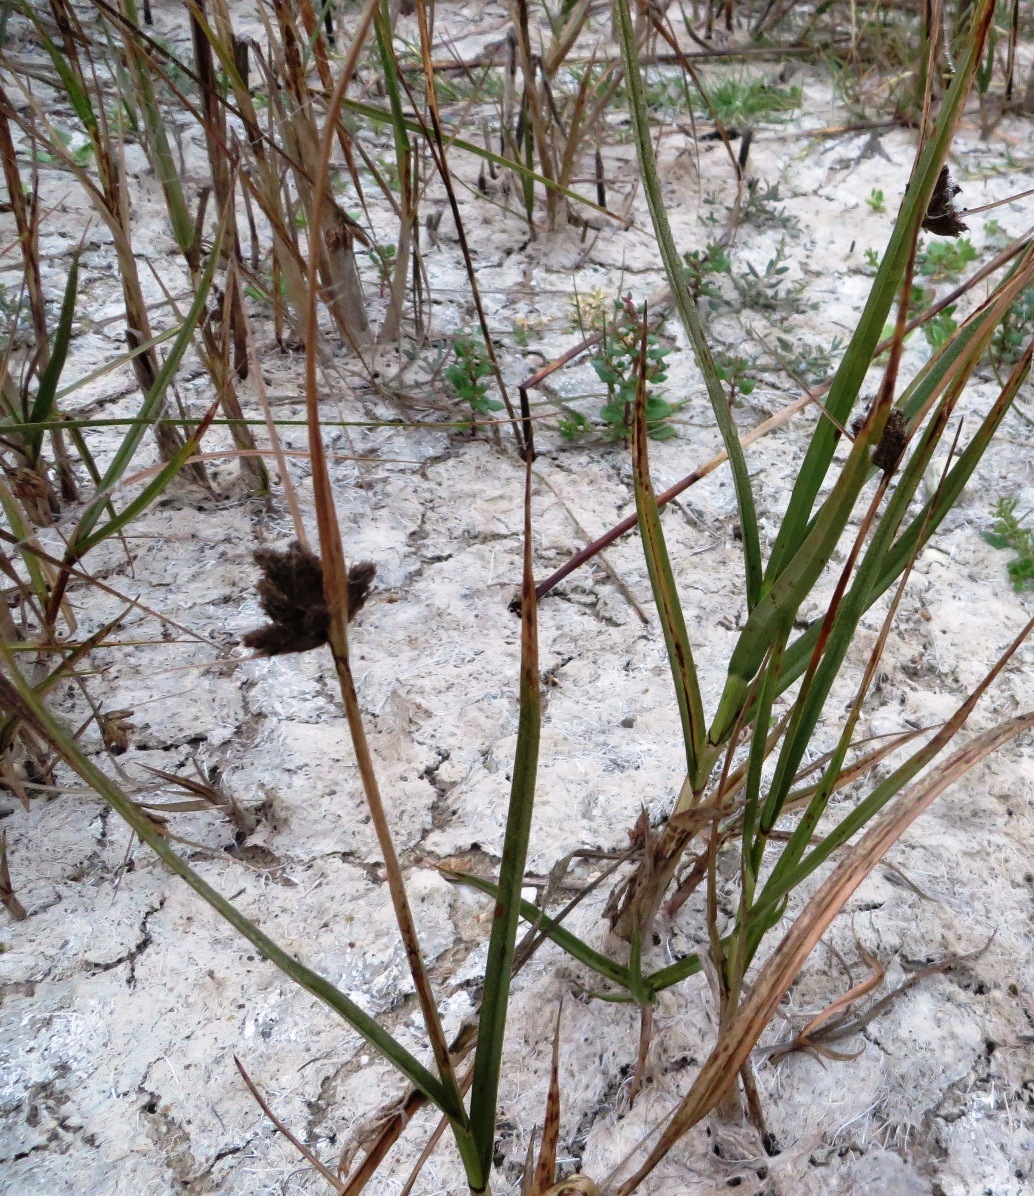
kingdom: Plantae
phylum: Tracheophyta
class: Liliopsida
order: Poales
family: Cyperaceae
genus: Bolboschoenus
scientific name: Bolboschoenus maritimus
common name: Sea club-rush
